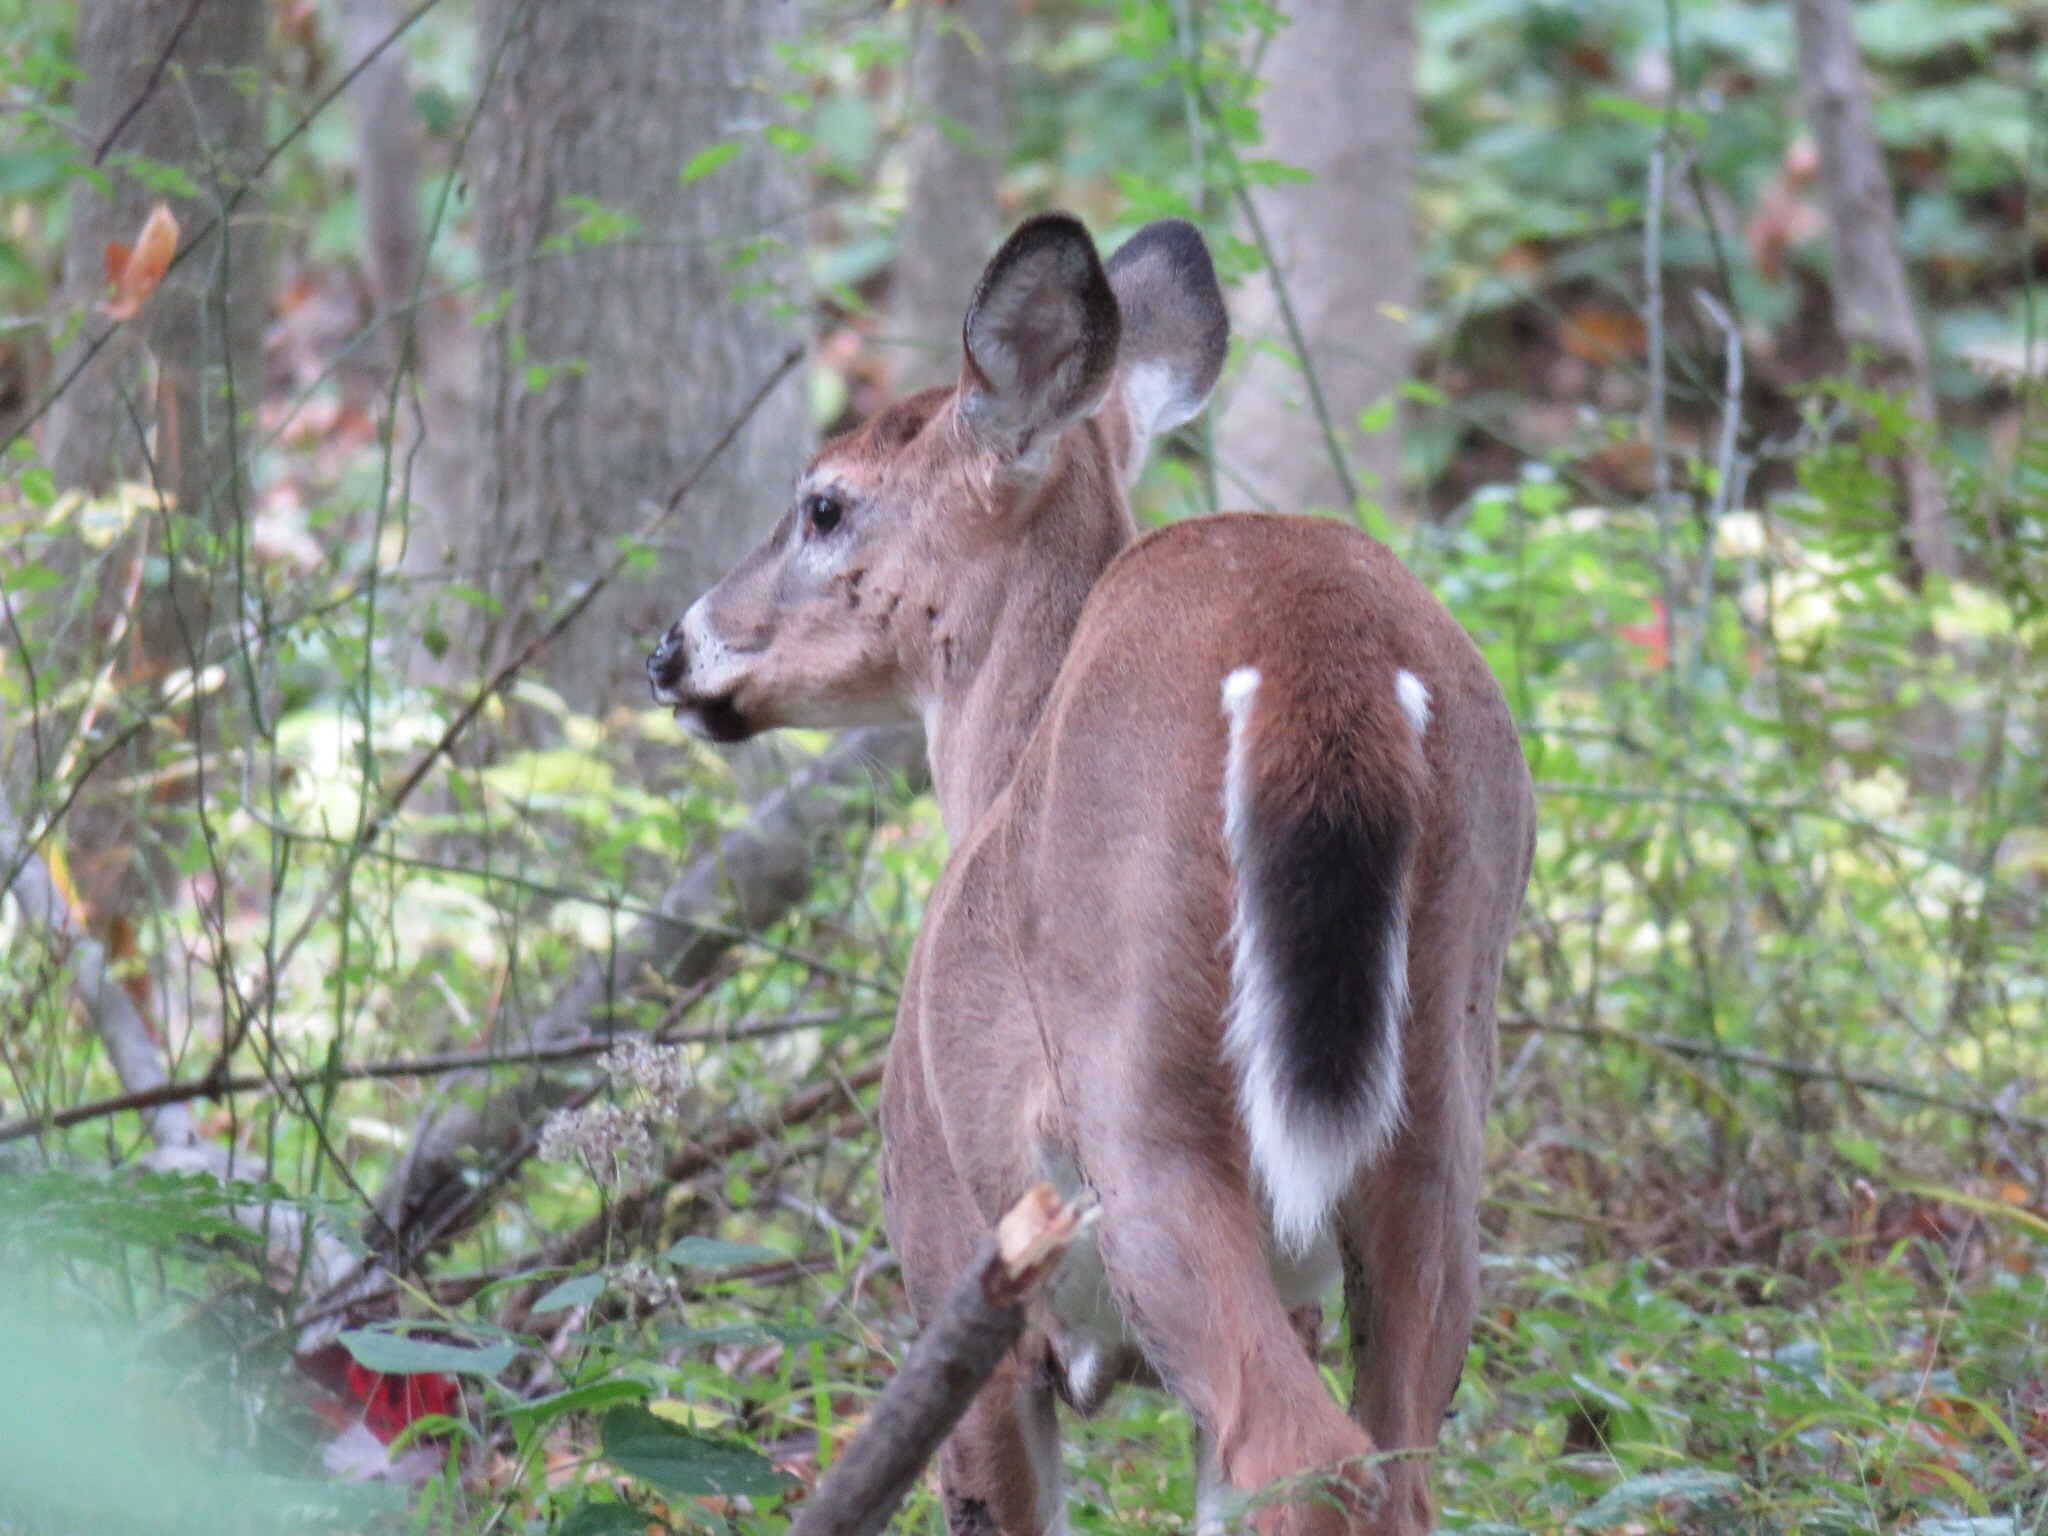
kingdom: Animalia
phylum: Chordata
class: Mammalia
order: Artiodactyla
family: Cervidae
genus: Odocoileus
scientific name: Odocoileus virginianus
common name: White-tailed deer
